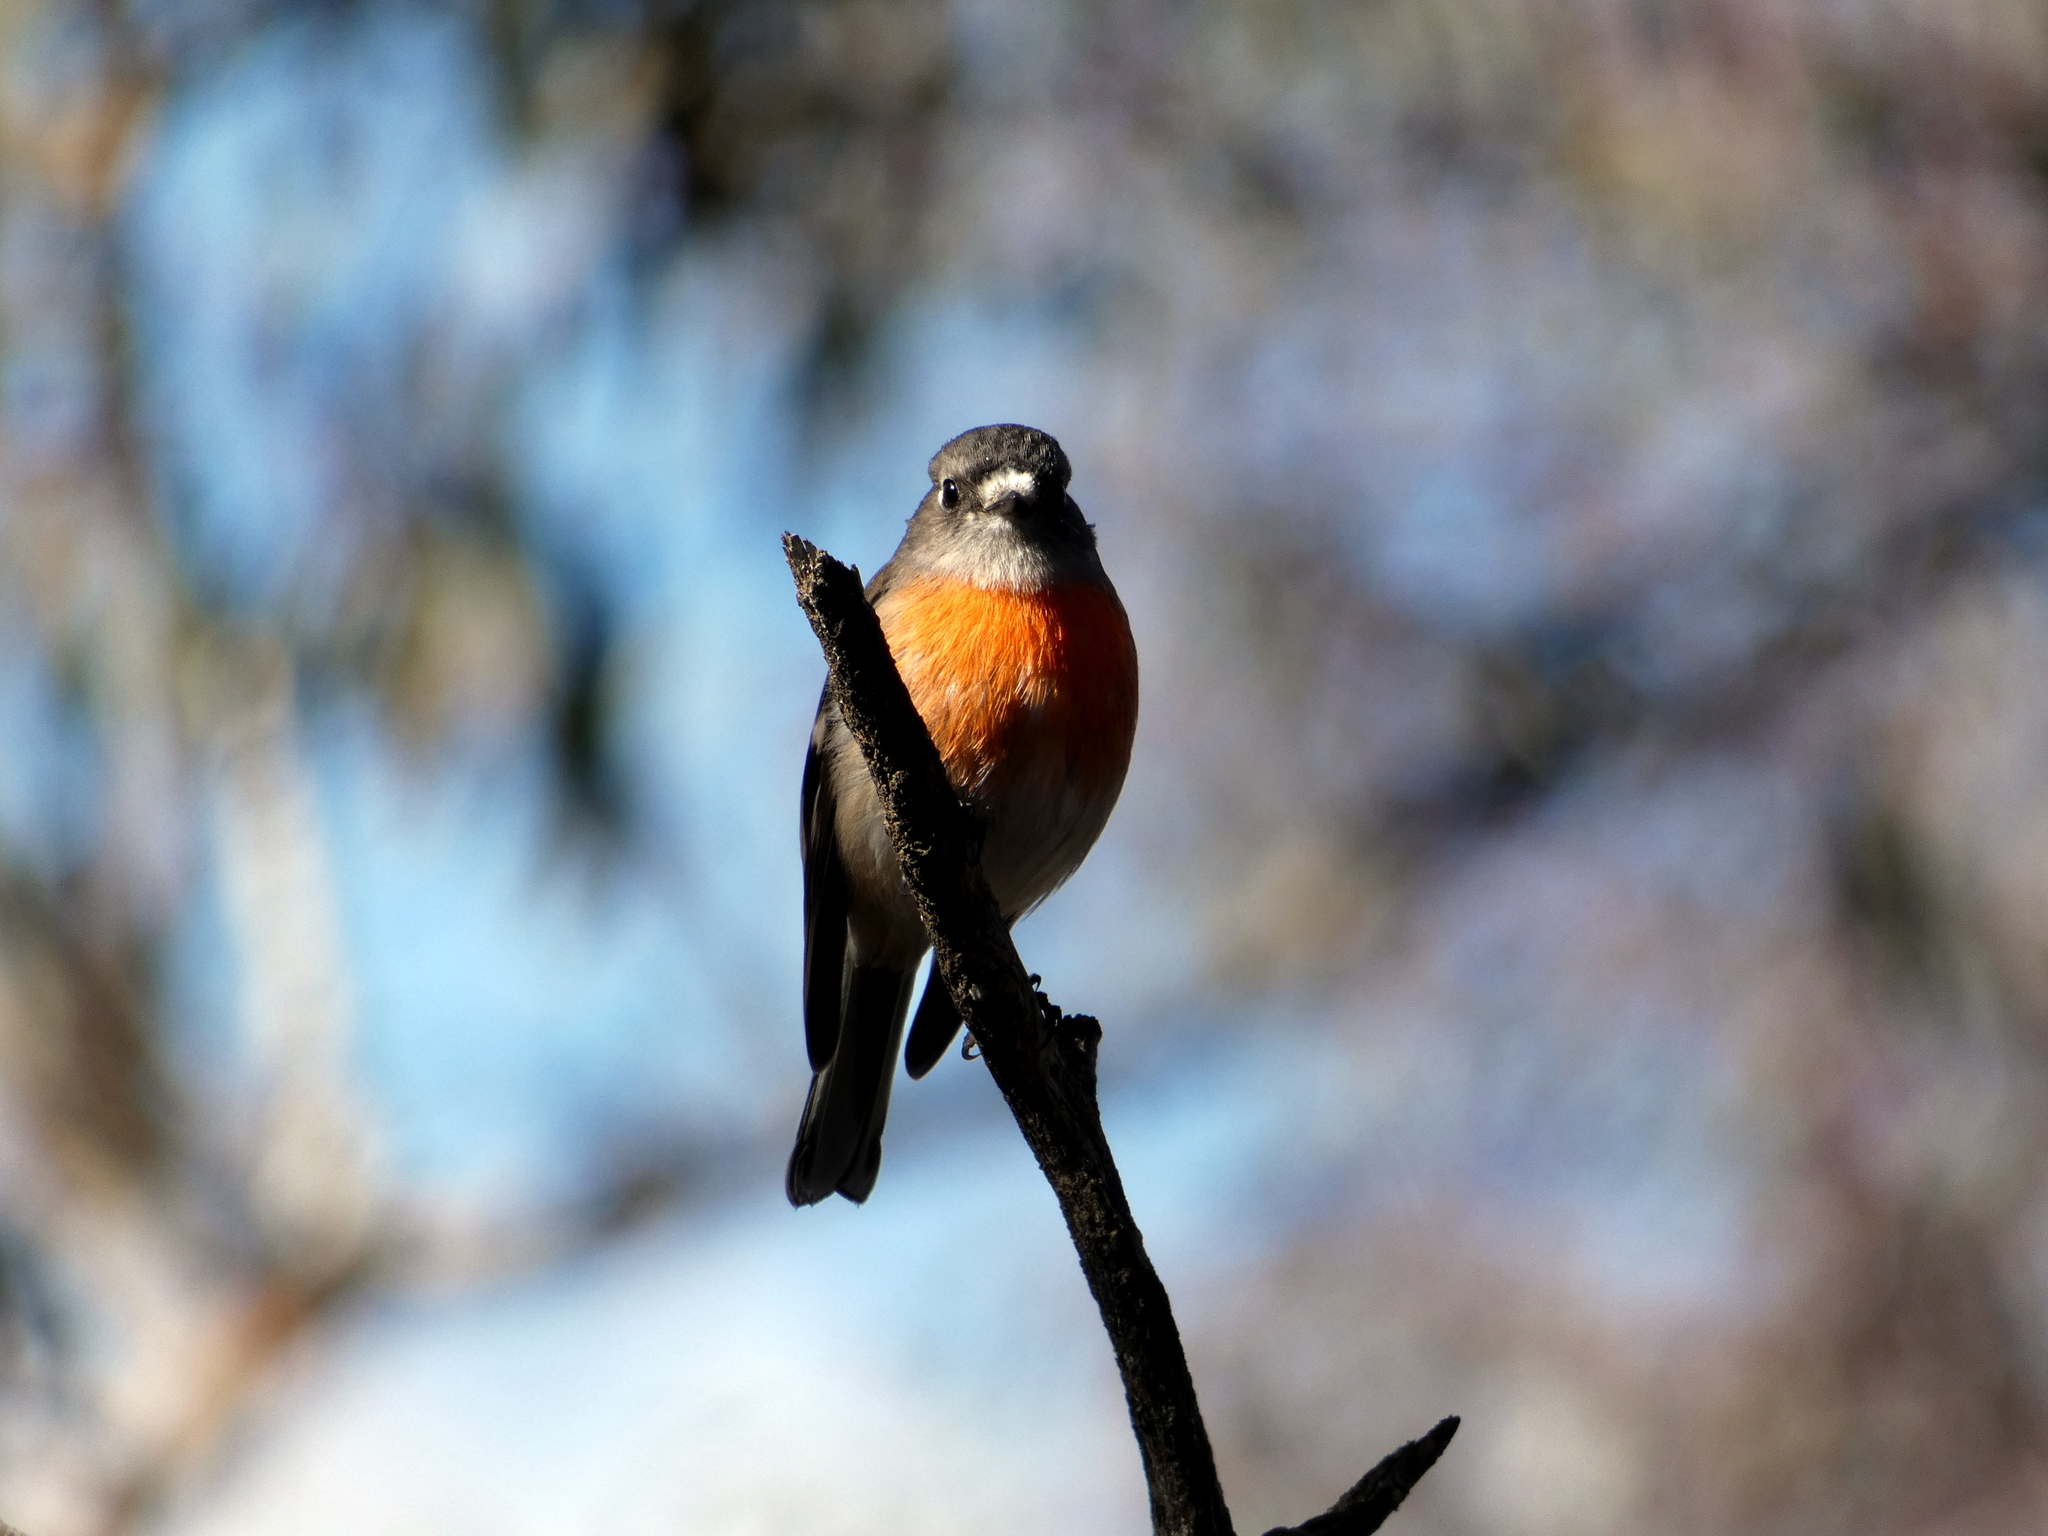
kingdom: Animalia
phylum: Chordata
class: Aves
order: Passeriformes
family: Petroicidae
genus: Petroica
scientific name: Petroica boodang
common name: Scarlet robin
